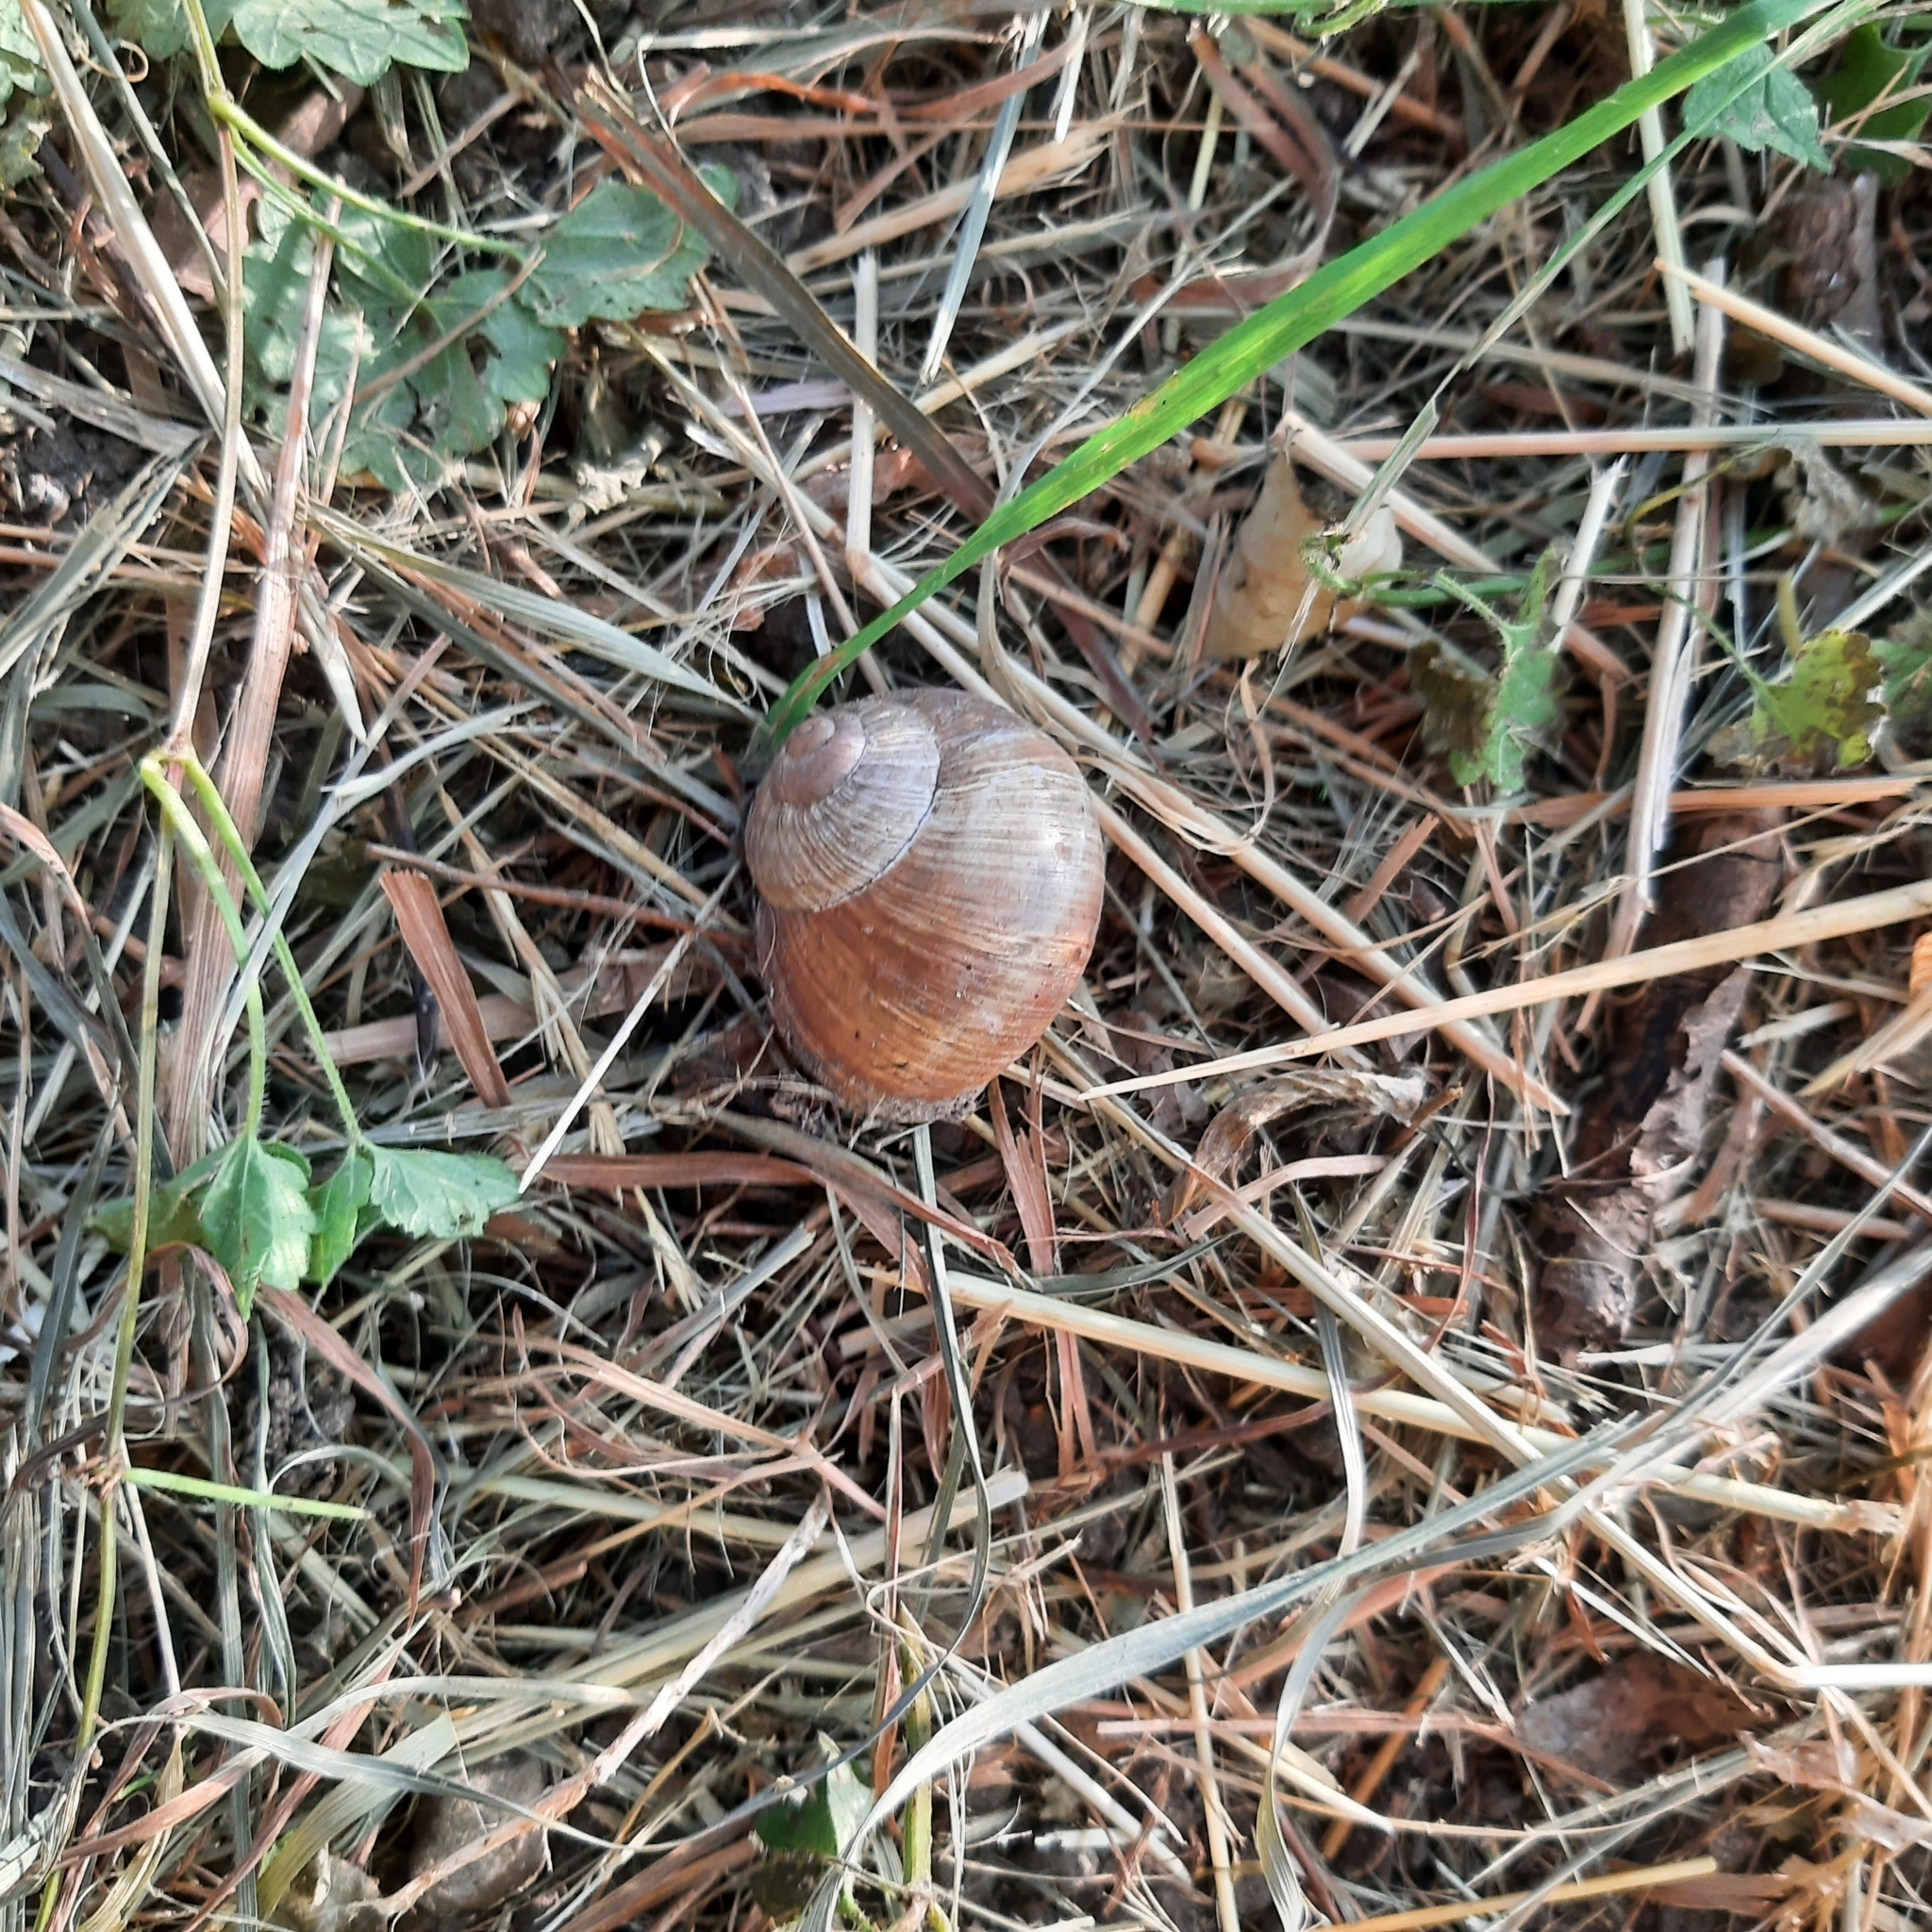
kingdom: Animalia
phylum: Mollusca
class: Gastropoda
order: Stylommatophora
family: Helicidae
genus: Helix
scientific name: Helix pomatia
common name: Roman snail
